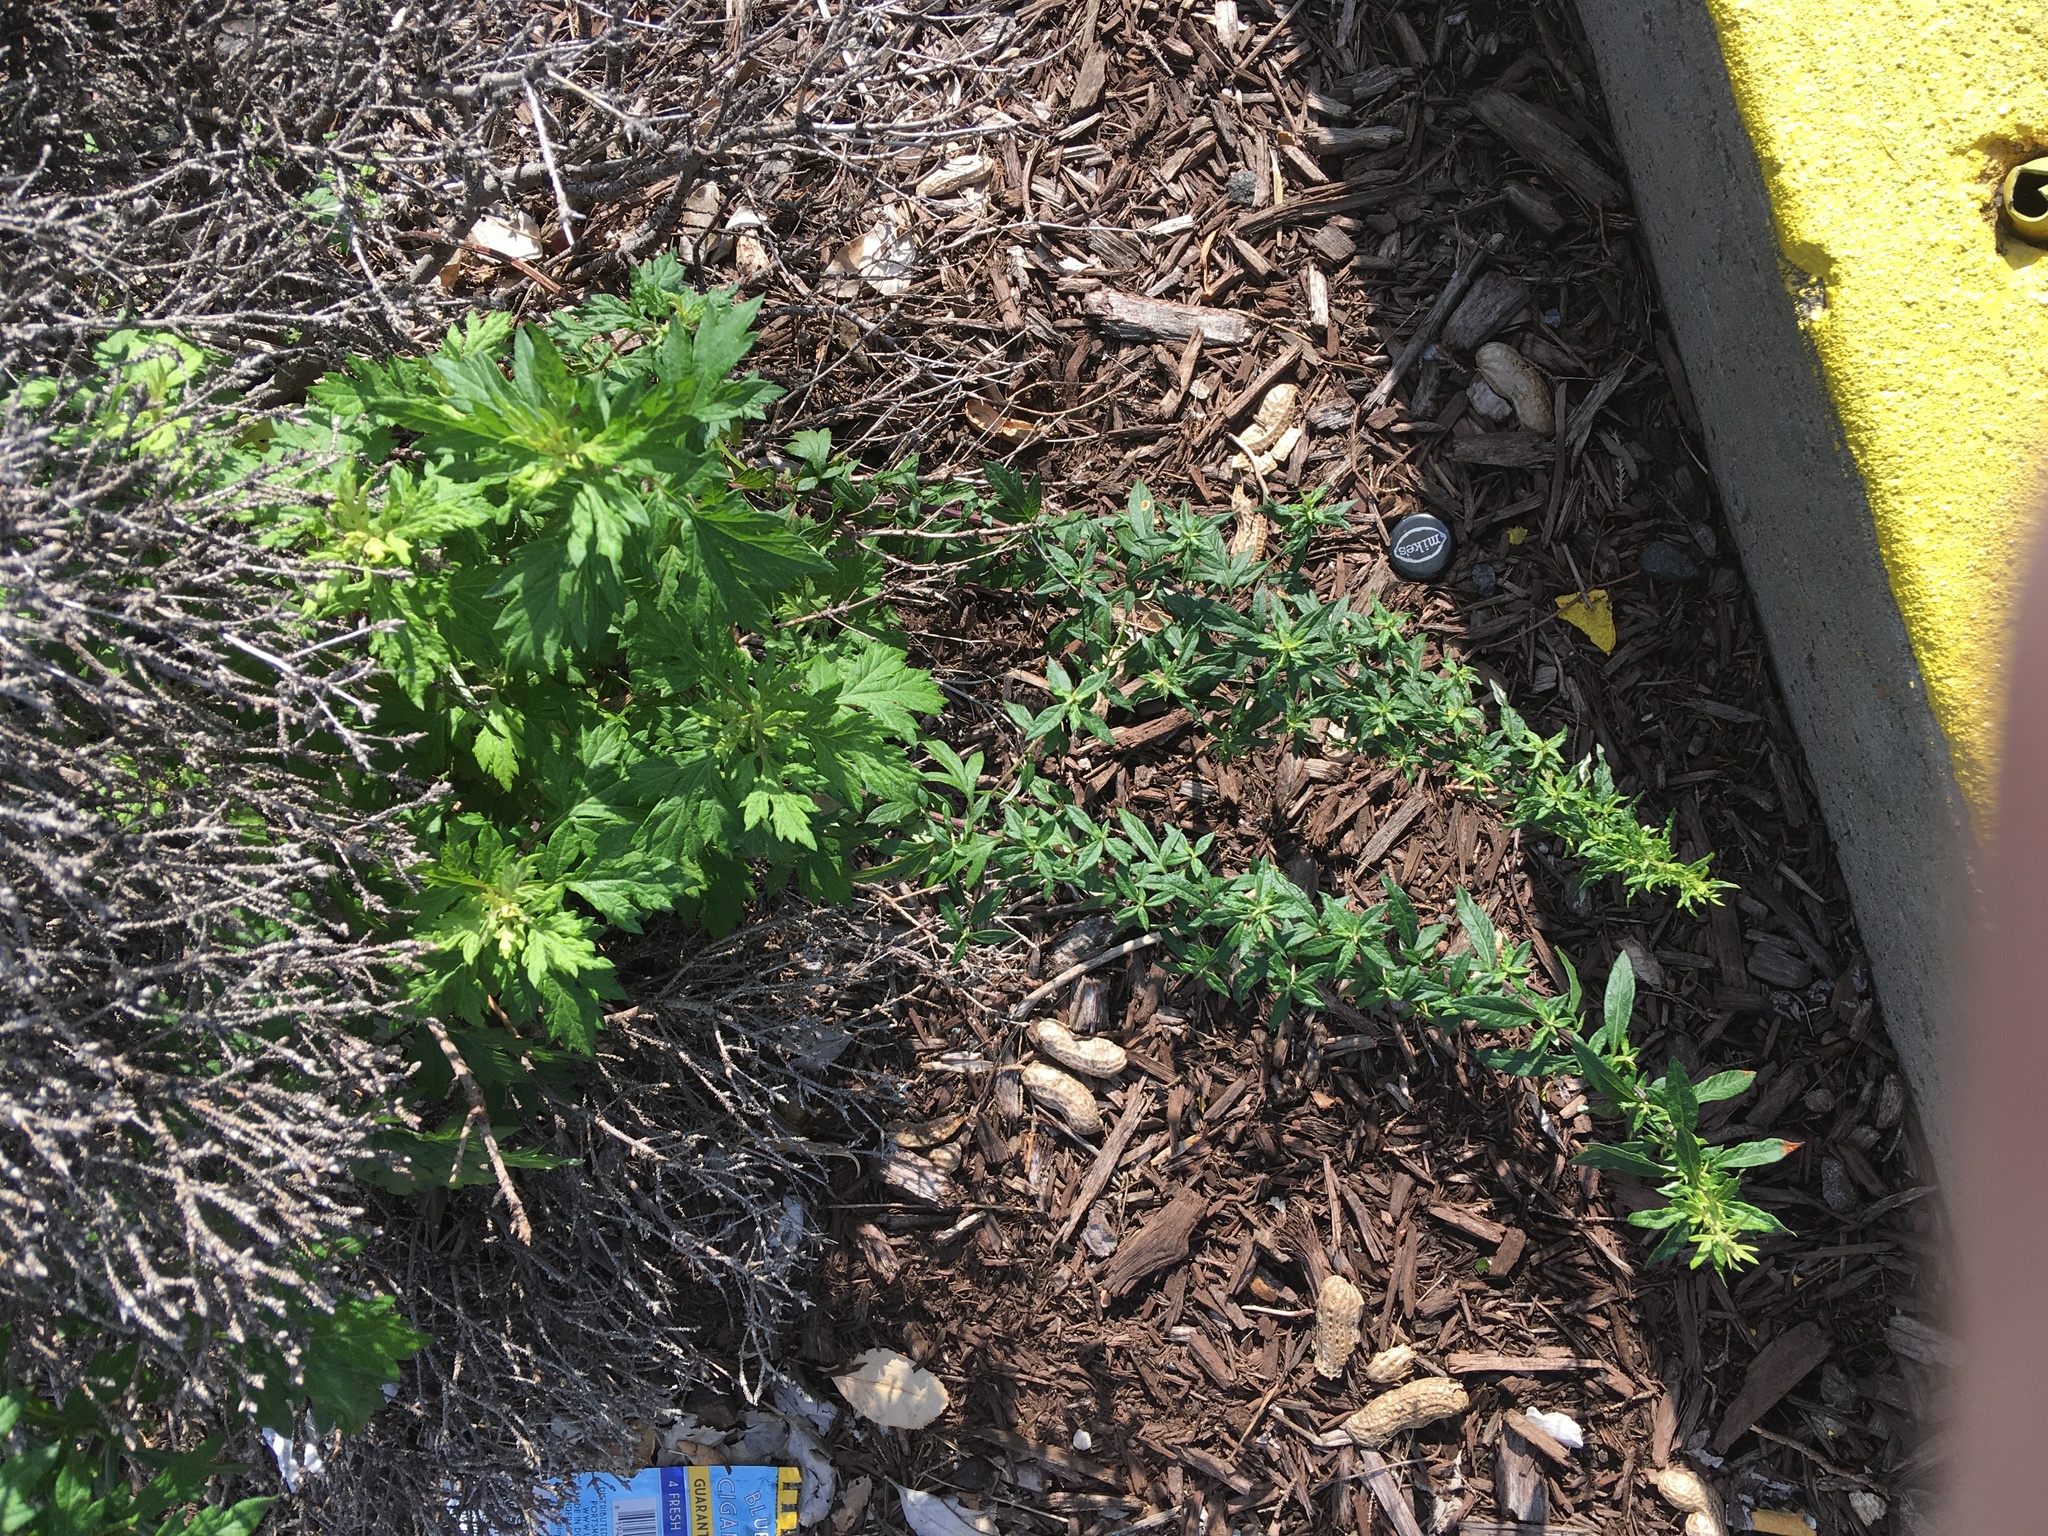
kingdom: Plantae
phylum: Tracheophyta
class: Magnoliopsida
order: Asterales
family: Asteraceae
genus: Artemisia
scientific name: Artemisia vulgaris
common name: Mugwort
